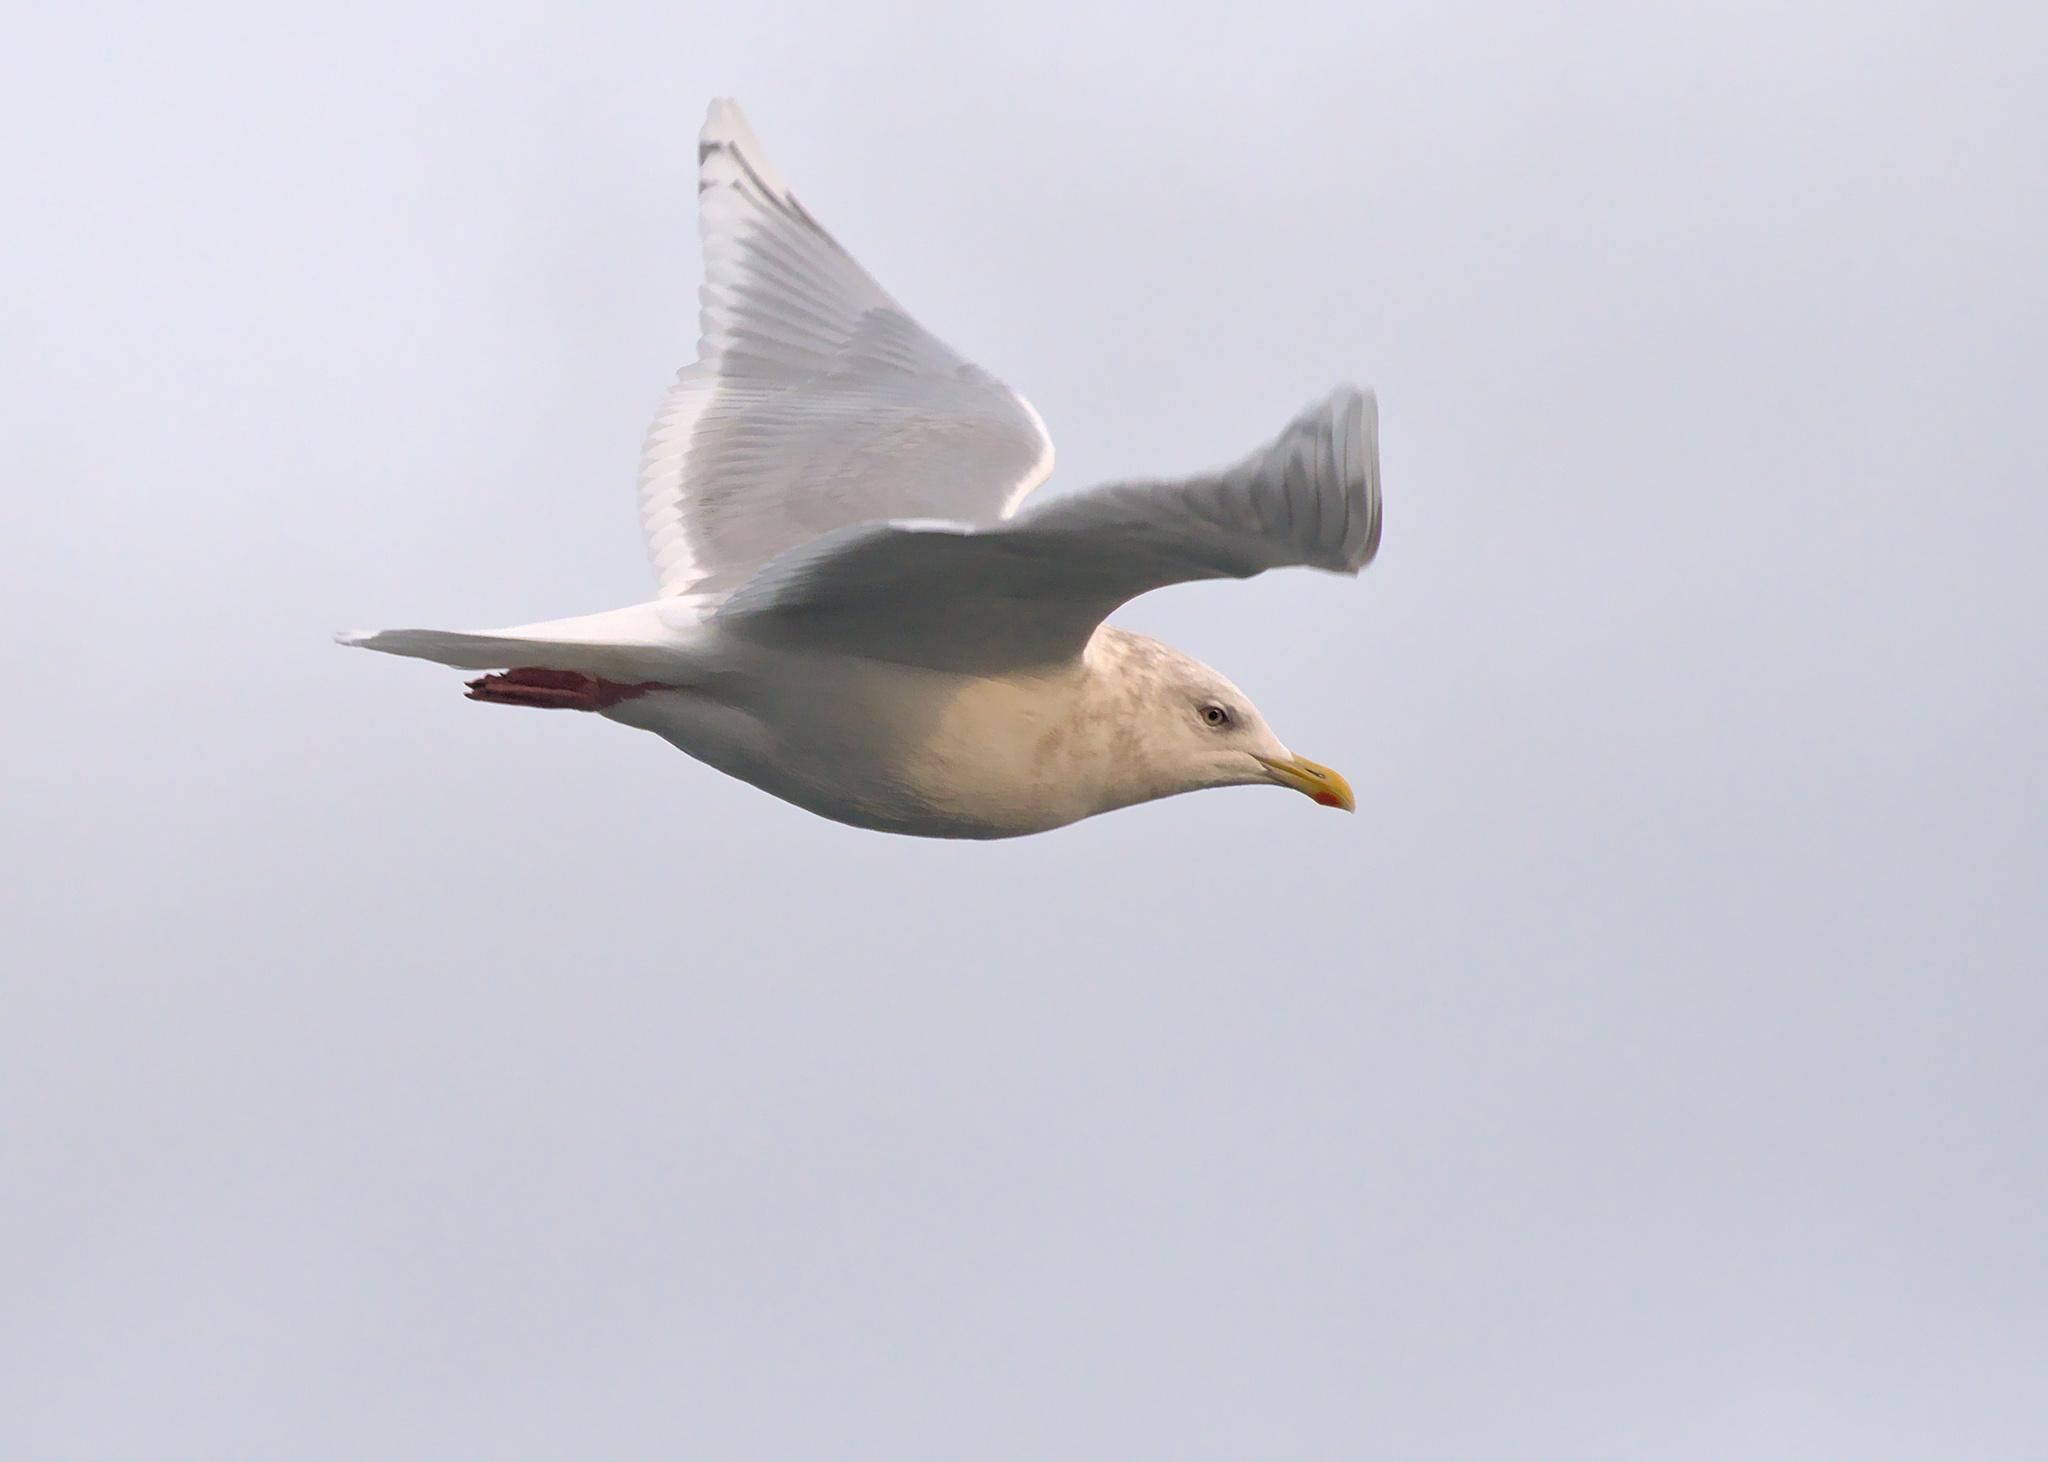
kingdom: Animalia
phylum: Chordata
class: Aves
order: Charadriiformes
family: Laridae
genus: Larus
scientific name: Larus glaucoides
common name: Iceland gull
